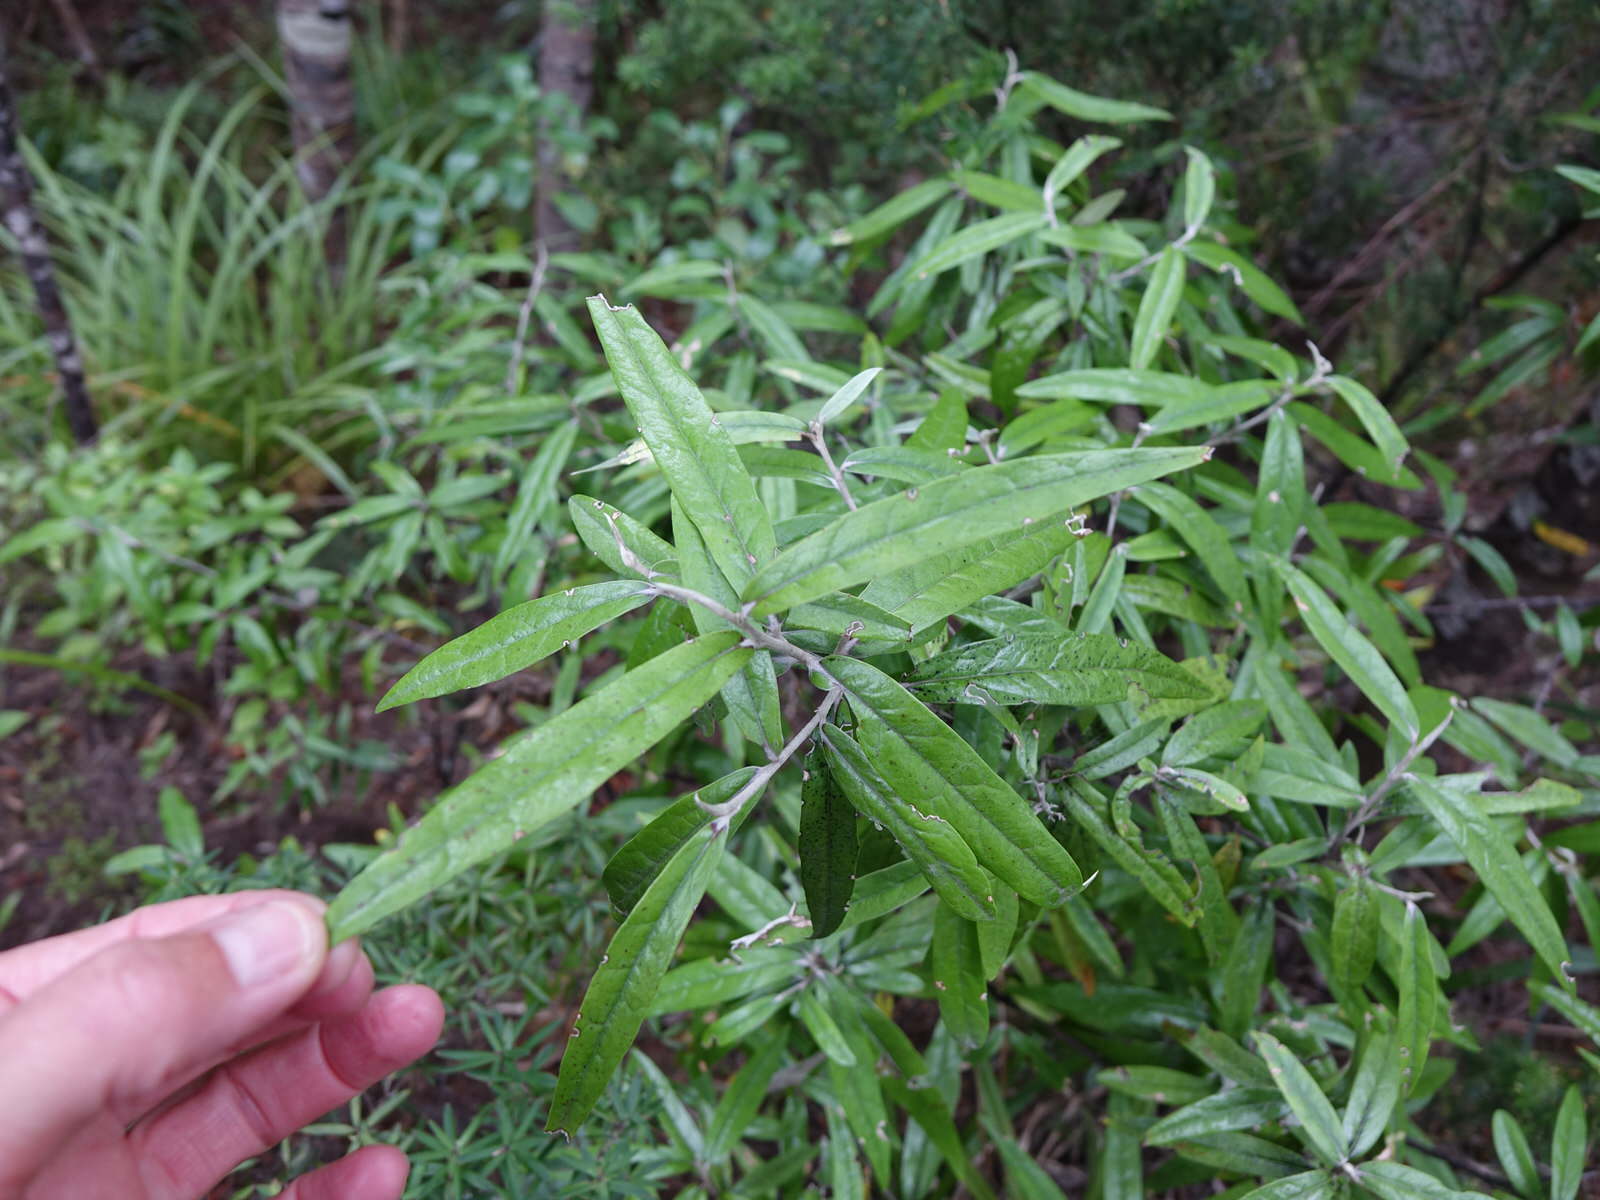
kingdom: Plantae
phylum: Tracheophyta
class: Magnoliopsida
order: Asterales
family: Argophyllaceae
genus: Corokia
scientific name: Corokia buddleioides
